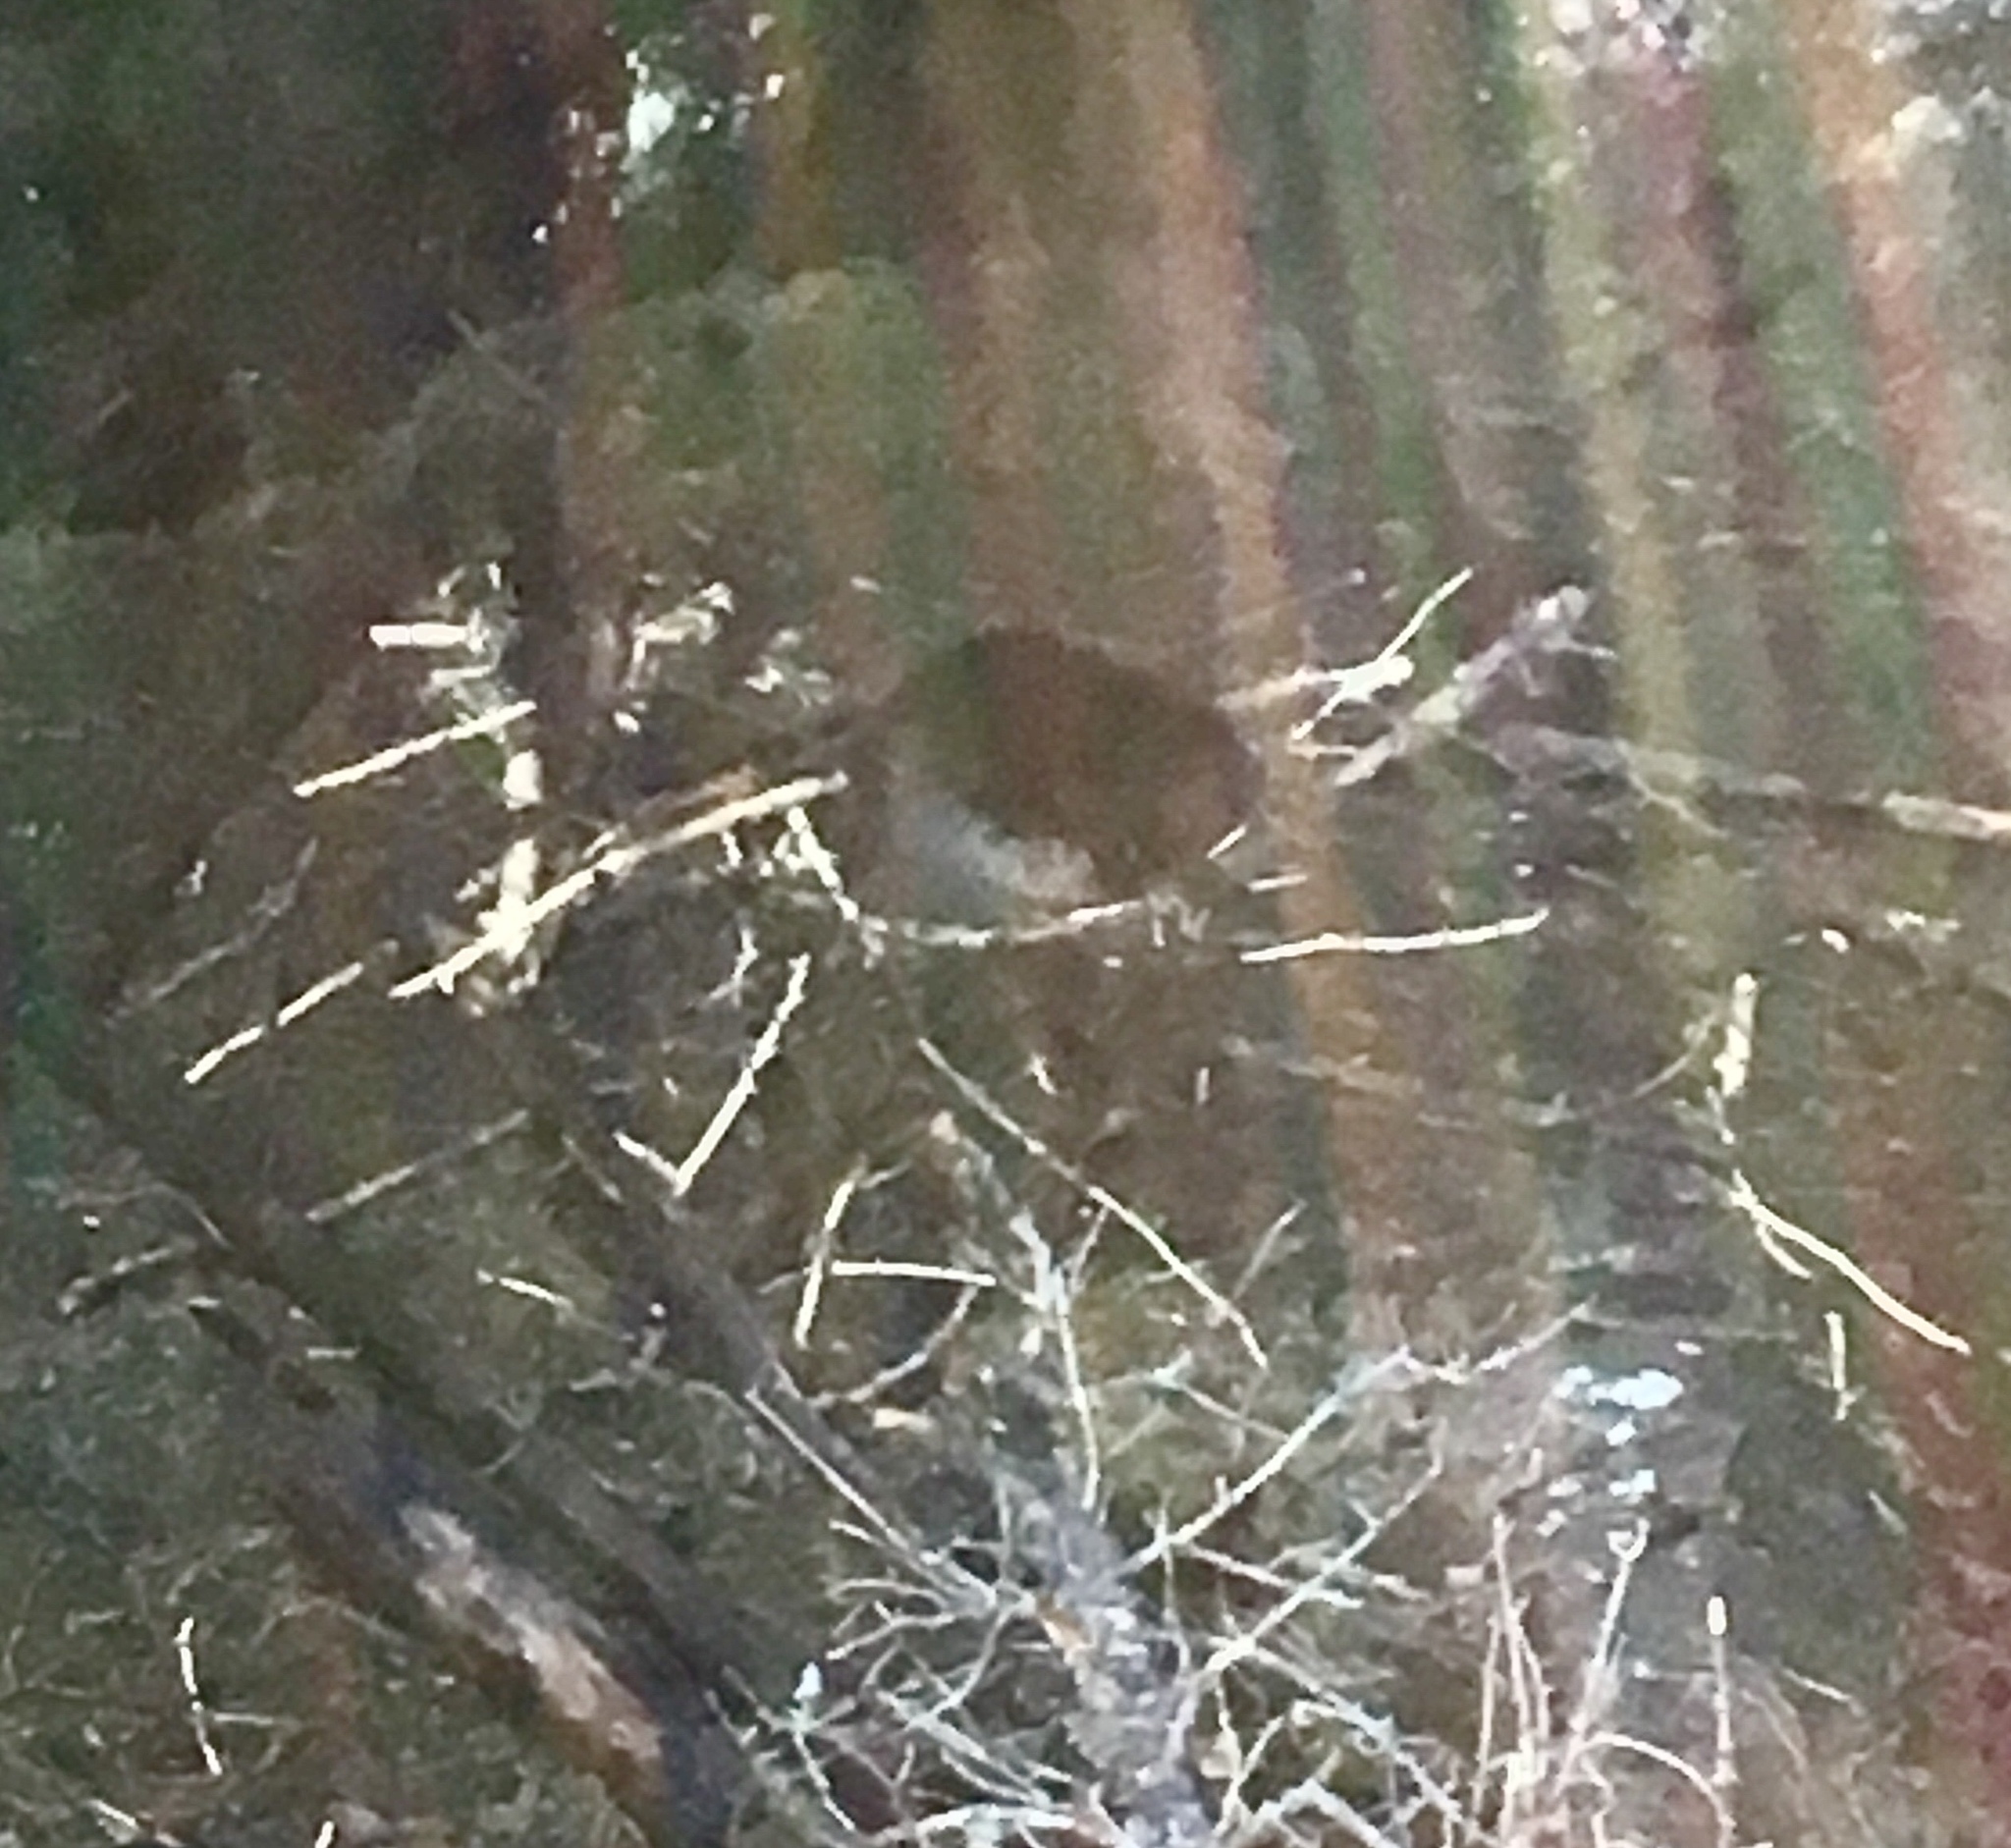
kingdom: Animalia
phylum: Chordata
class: Mammalia
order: Rodentia
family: Castoridae
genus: Castor
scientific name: Castor canadensis
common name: American beaver
